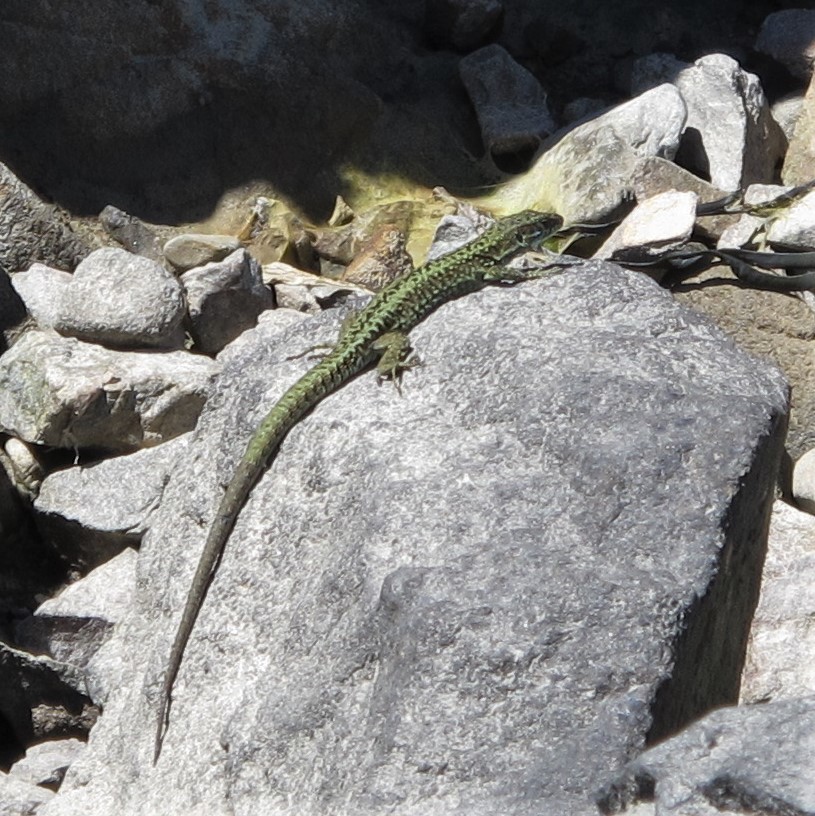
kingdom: Animalia
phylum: Chordata
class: Squamata
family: Lacertidae
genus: Podarcis
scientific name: Podarcis muralis
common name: Common wall lizard
